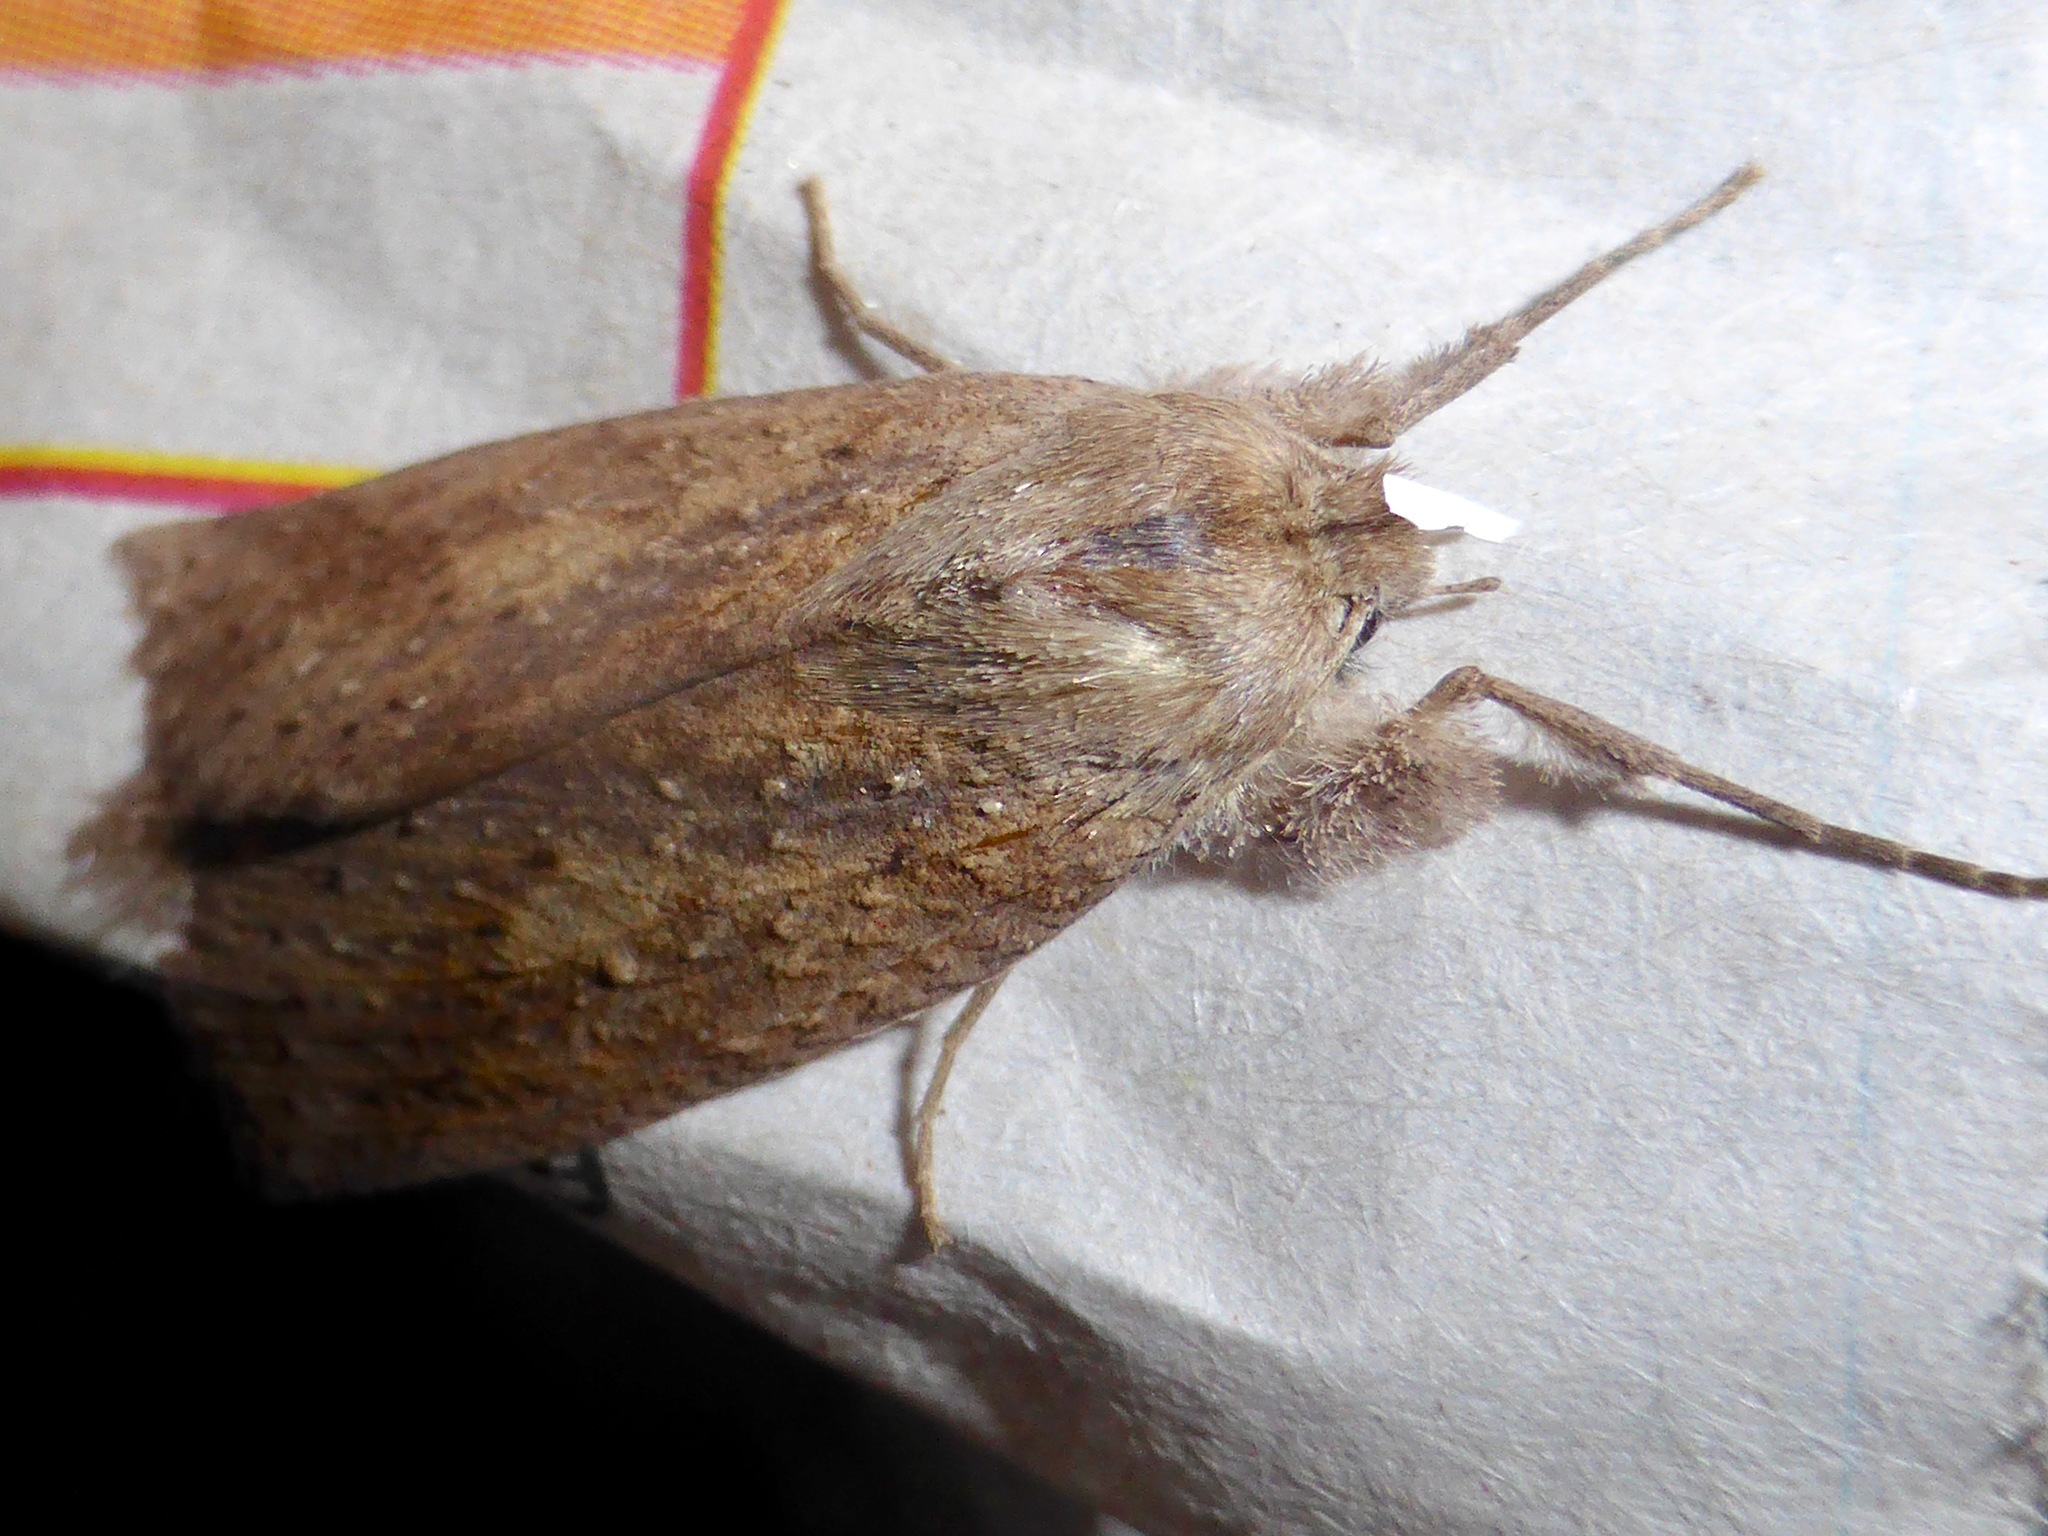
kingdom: Animalia
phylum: Arthropoda
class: Insecta
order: Lepidoptera
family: Geometridae
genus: Declana
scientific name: Declana leptomera
